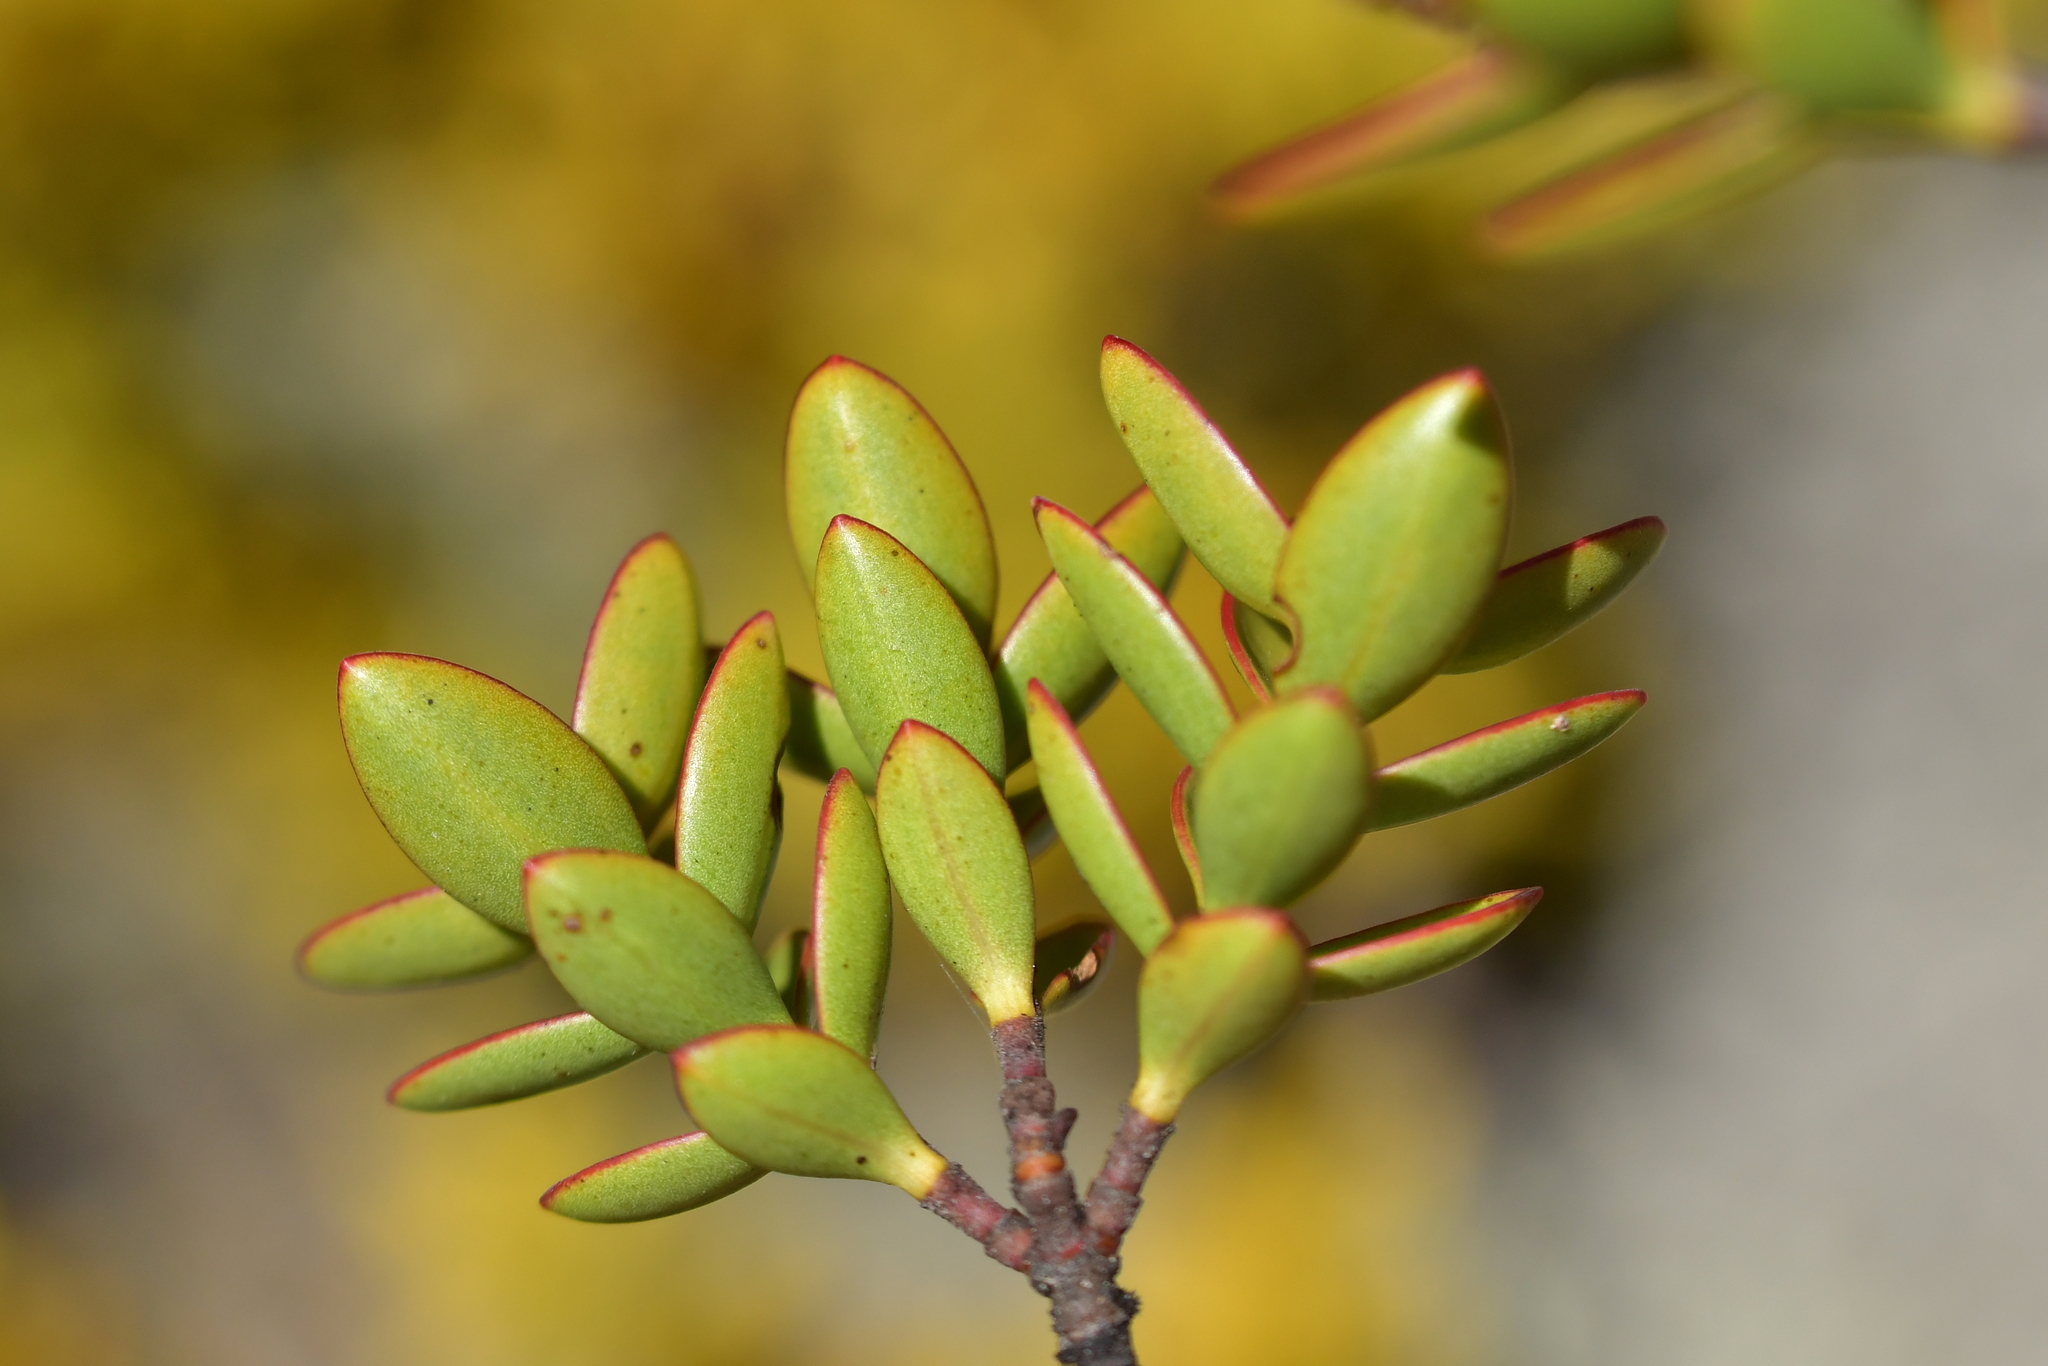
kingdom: Plantae
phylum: Tracheophyta
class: Magnoliopsida
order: Lamiales
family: Plantaginaceae
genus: Veronica
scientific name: Veronica decumbens
